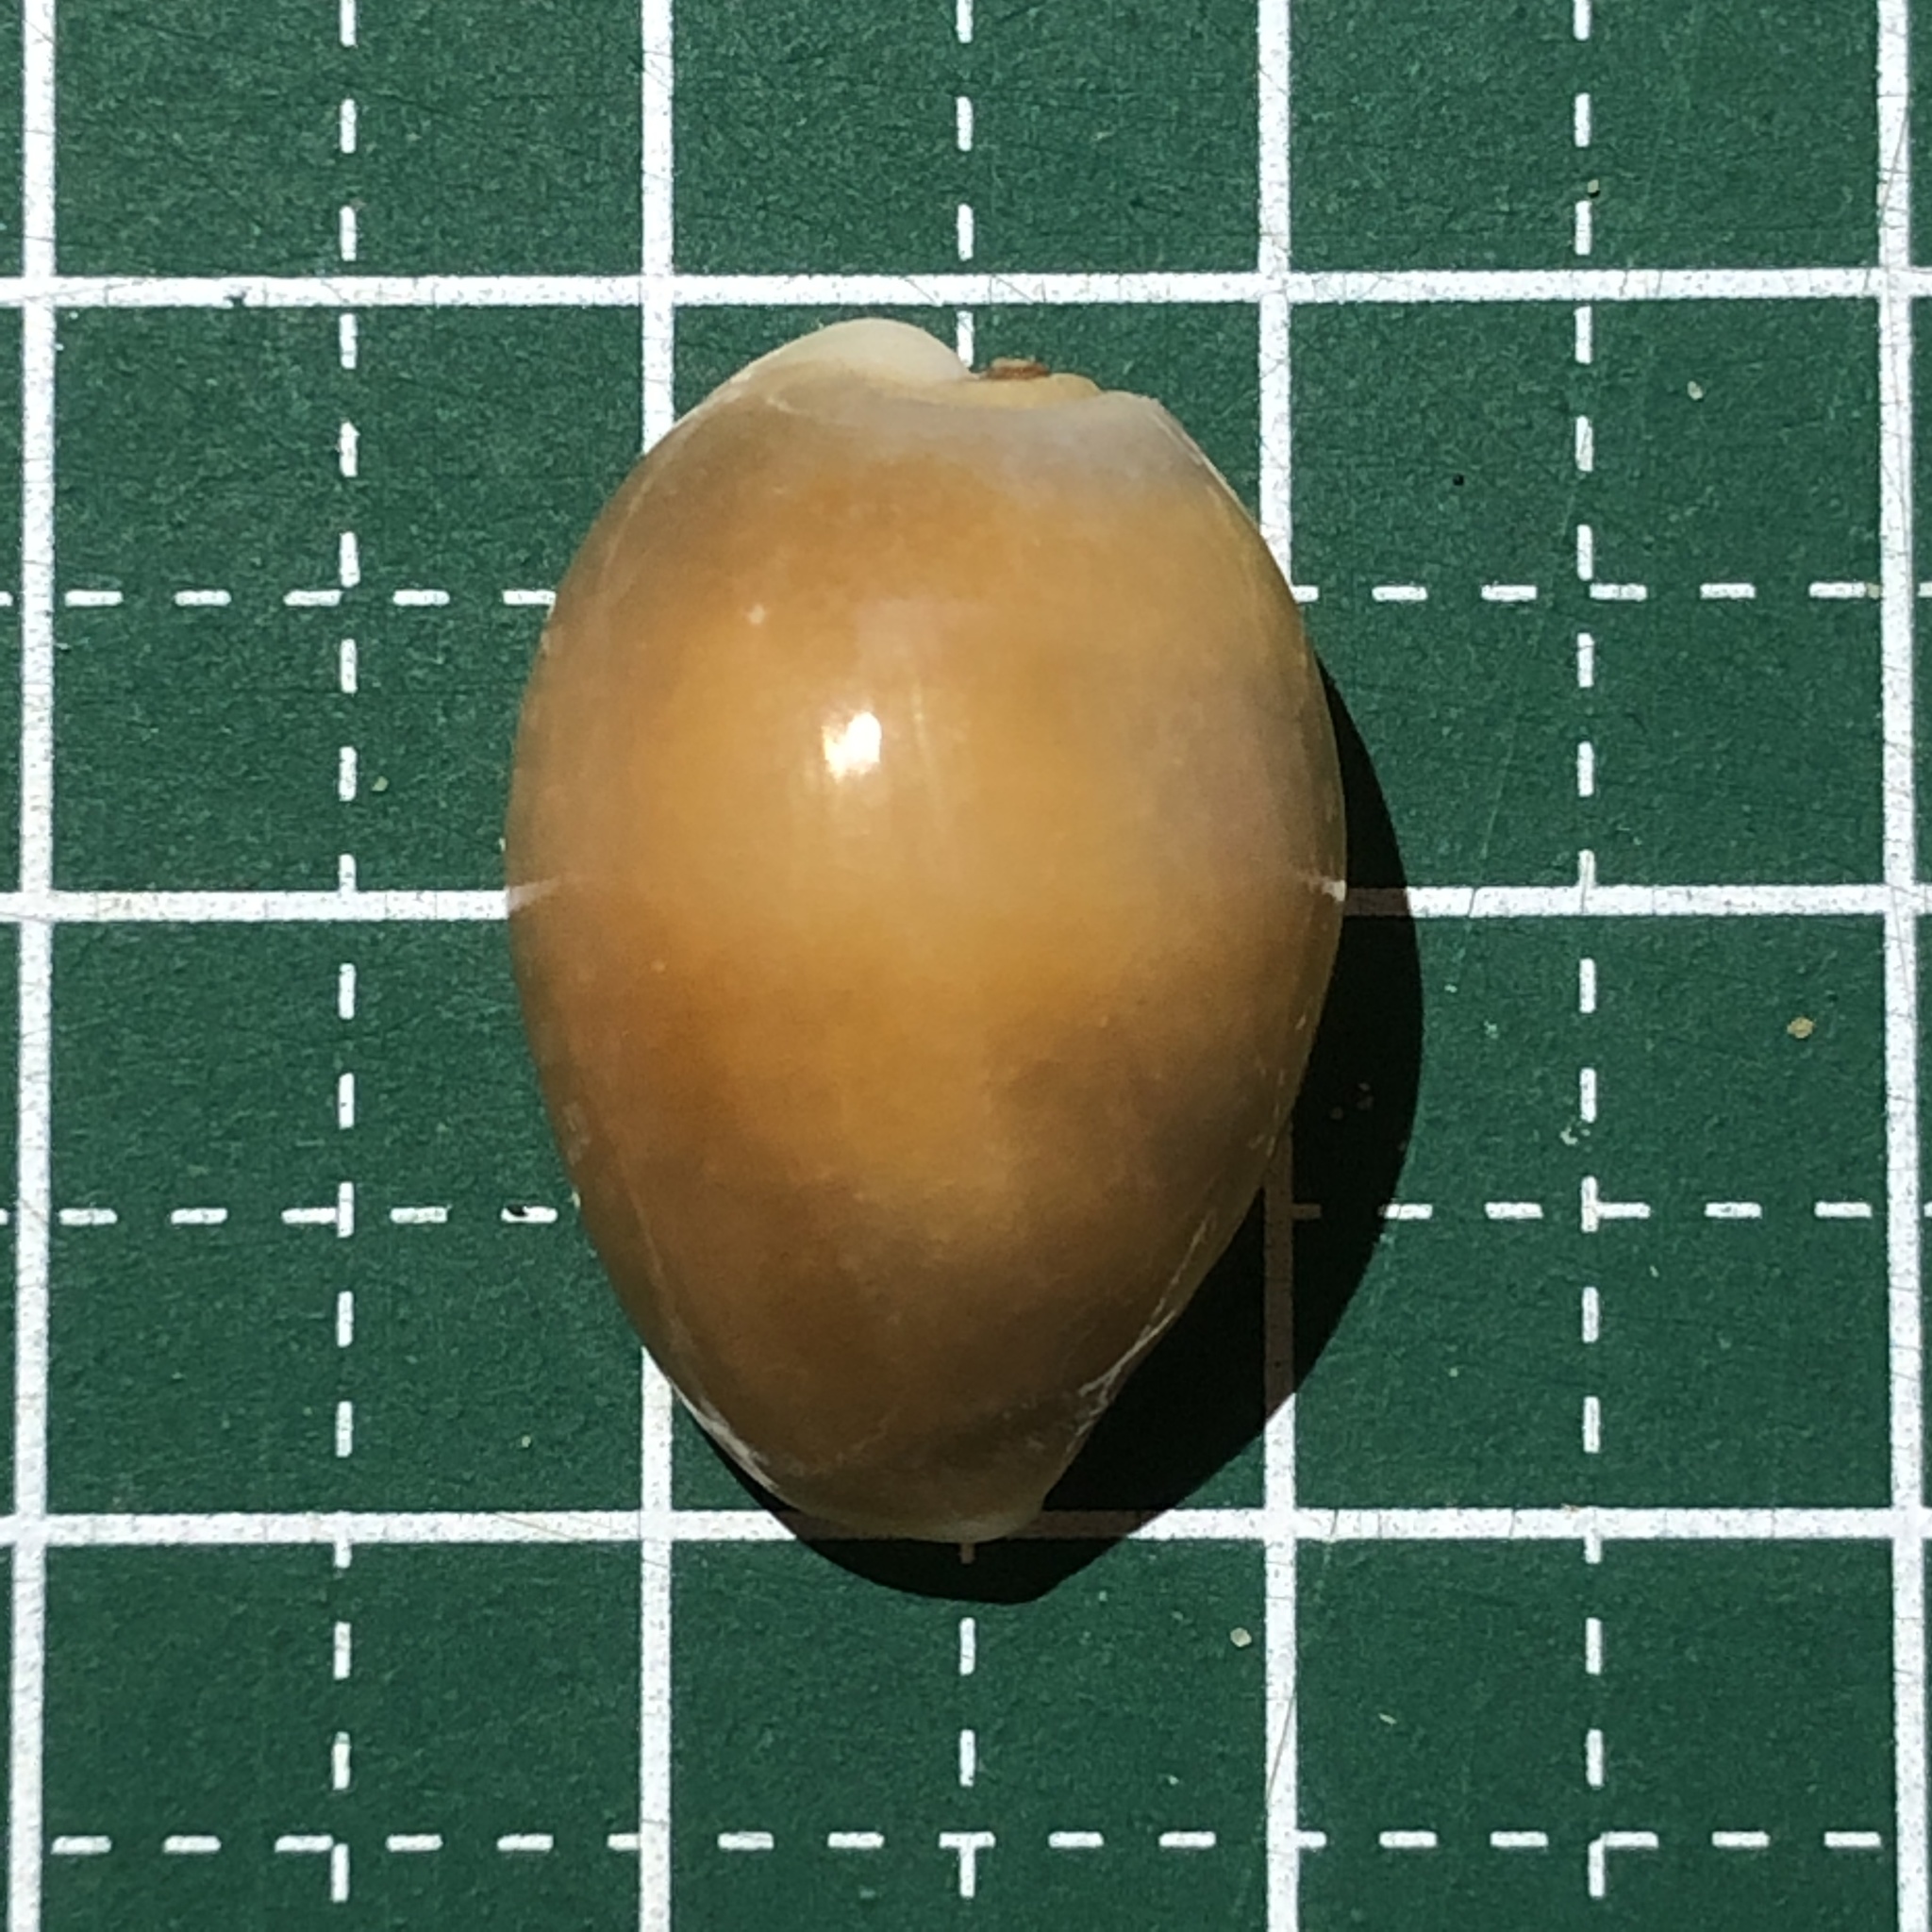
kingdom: Animalia
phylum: Mollusca
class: Gastropoda
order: Littorinimorpha
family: Cypraeidae
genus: Monetaria
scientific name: Monetaria annulus
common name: Ring cowrie
